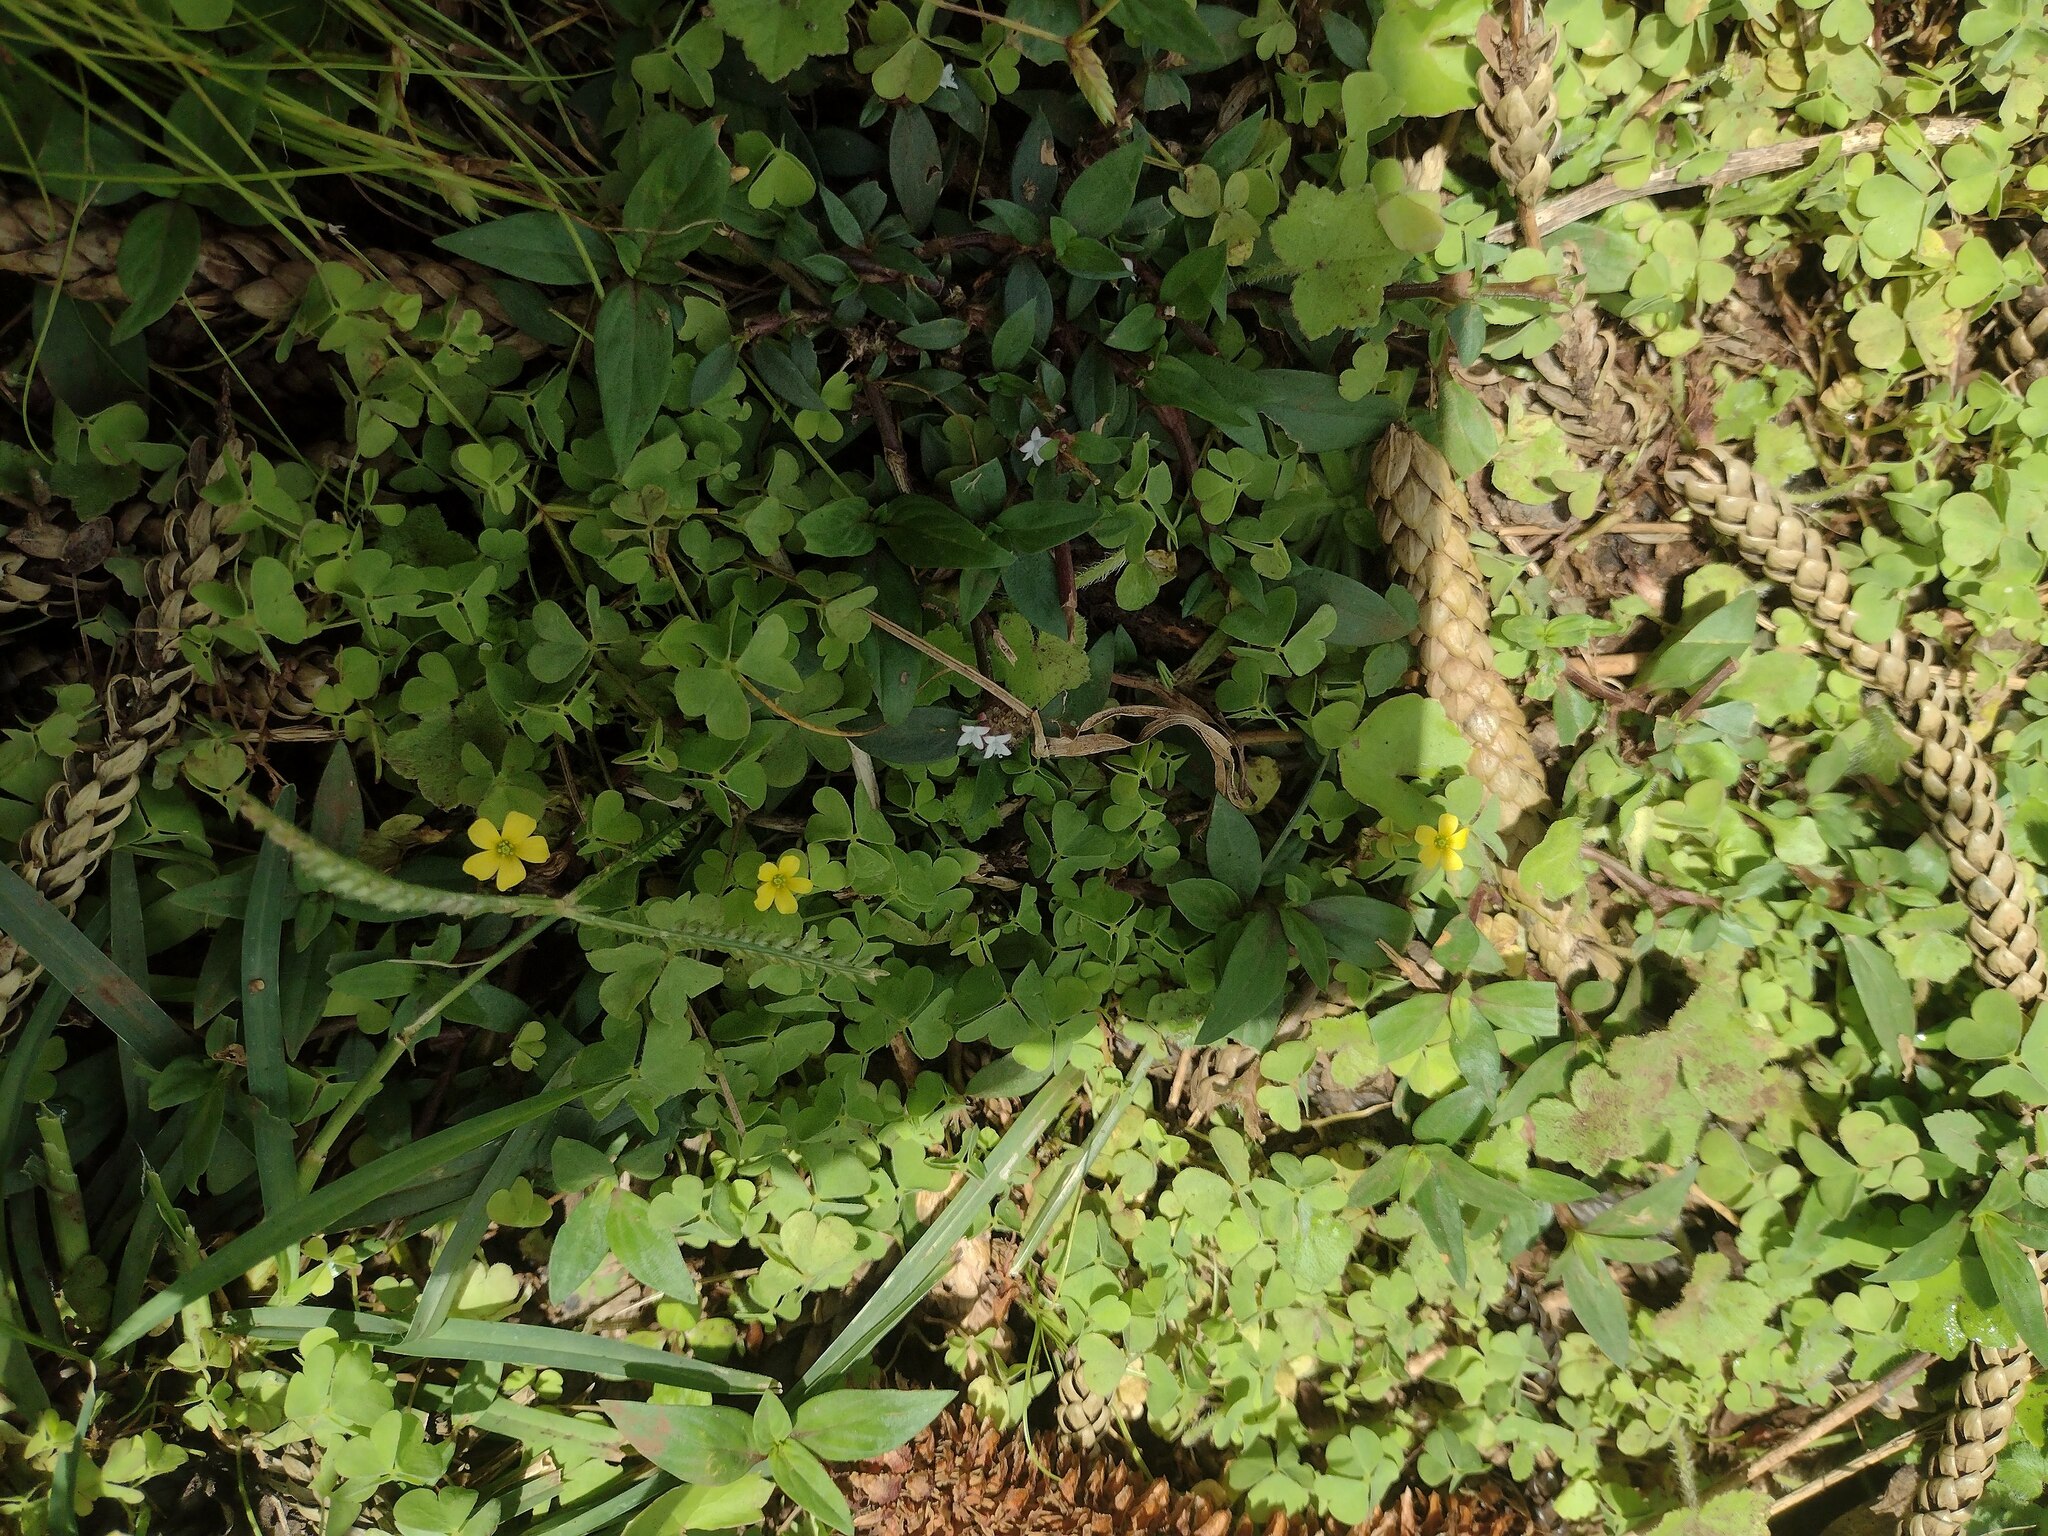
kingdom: Plantae
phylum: Tracheophyta
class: Magnoliopsida
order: Oxalidales
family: Oxalidaceae
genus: Oxalis
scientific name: Oxalis corniculata
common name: Procumbent yellow-sorrel
